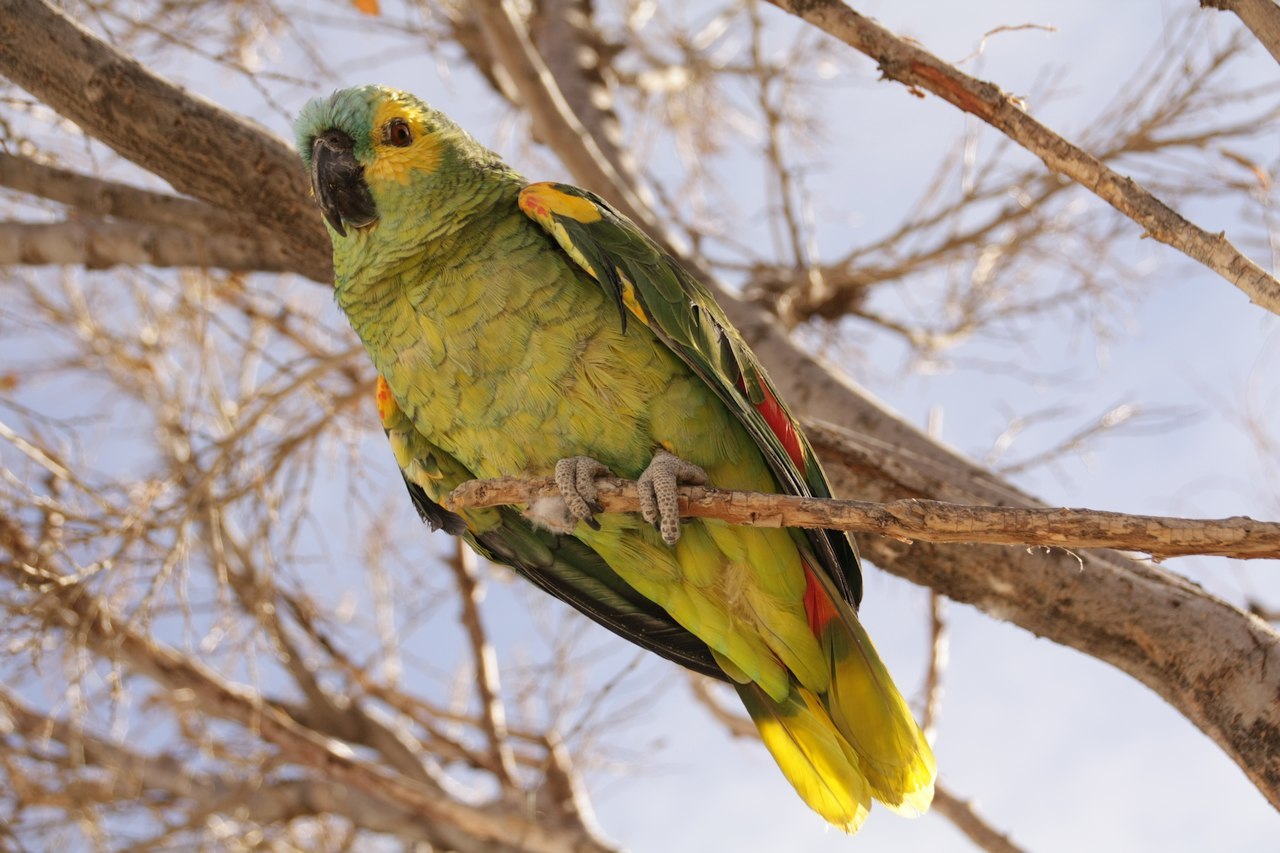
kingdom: Animalia
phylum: Chordata
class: Aves
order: Psittaciformes
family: Psittacidae
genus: Amazona
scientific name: Amazona aestiva
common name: Turquoise-fronted amazon
